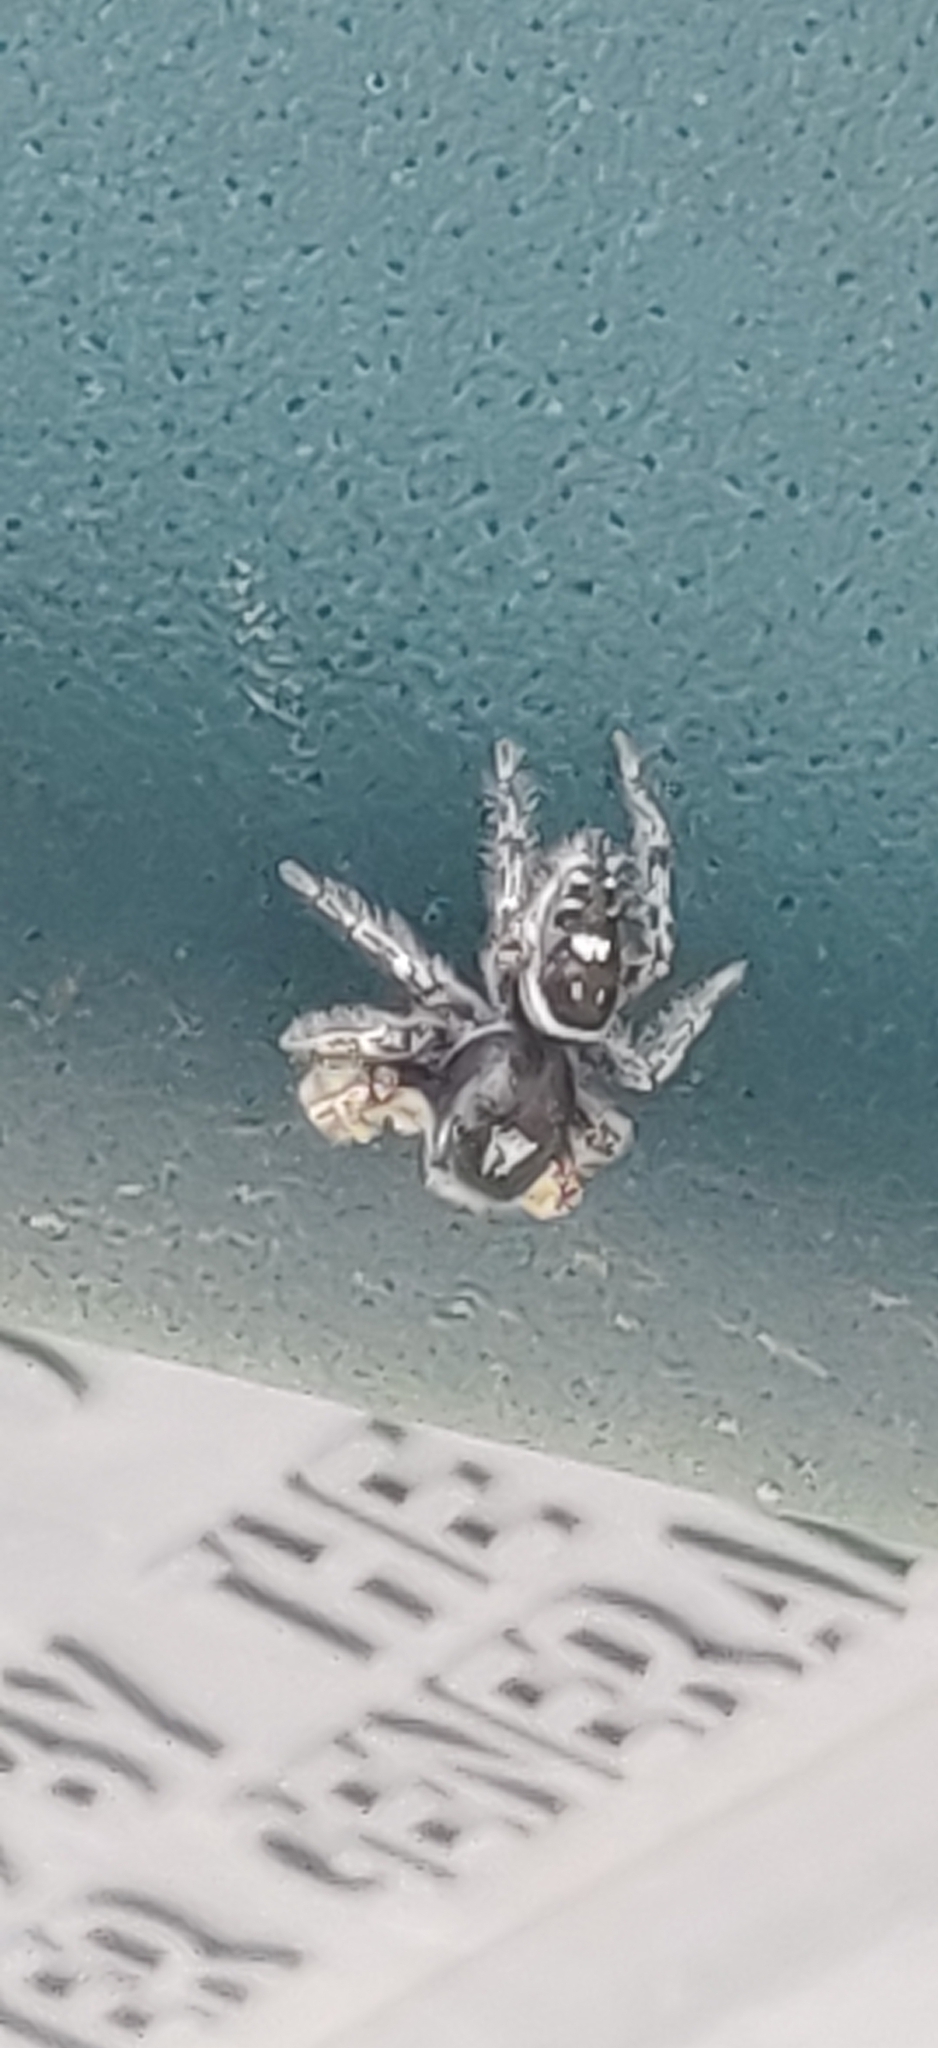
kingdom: Animalia
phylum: Arthropoda
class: Arachnida
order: Araneae
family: Salticidae
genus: Phidippus
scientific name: Phidippus putnami
